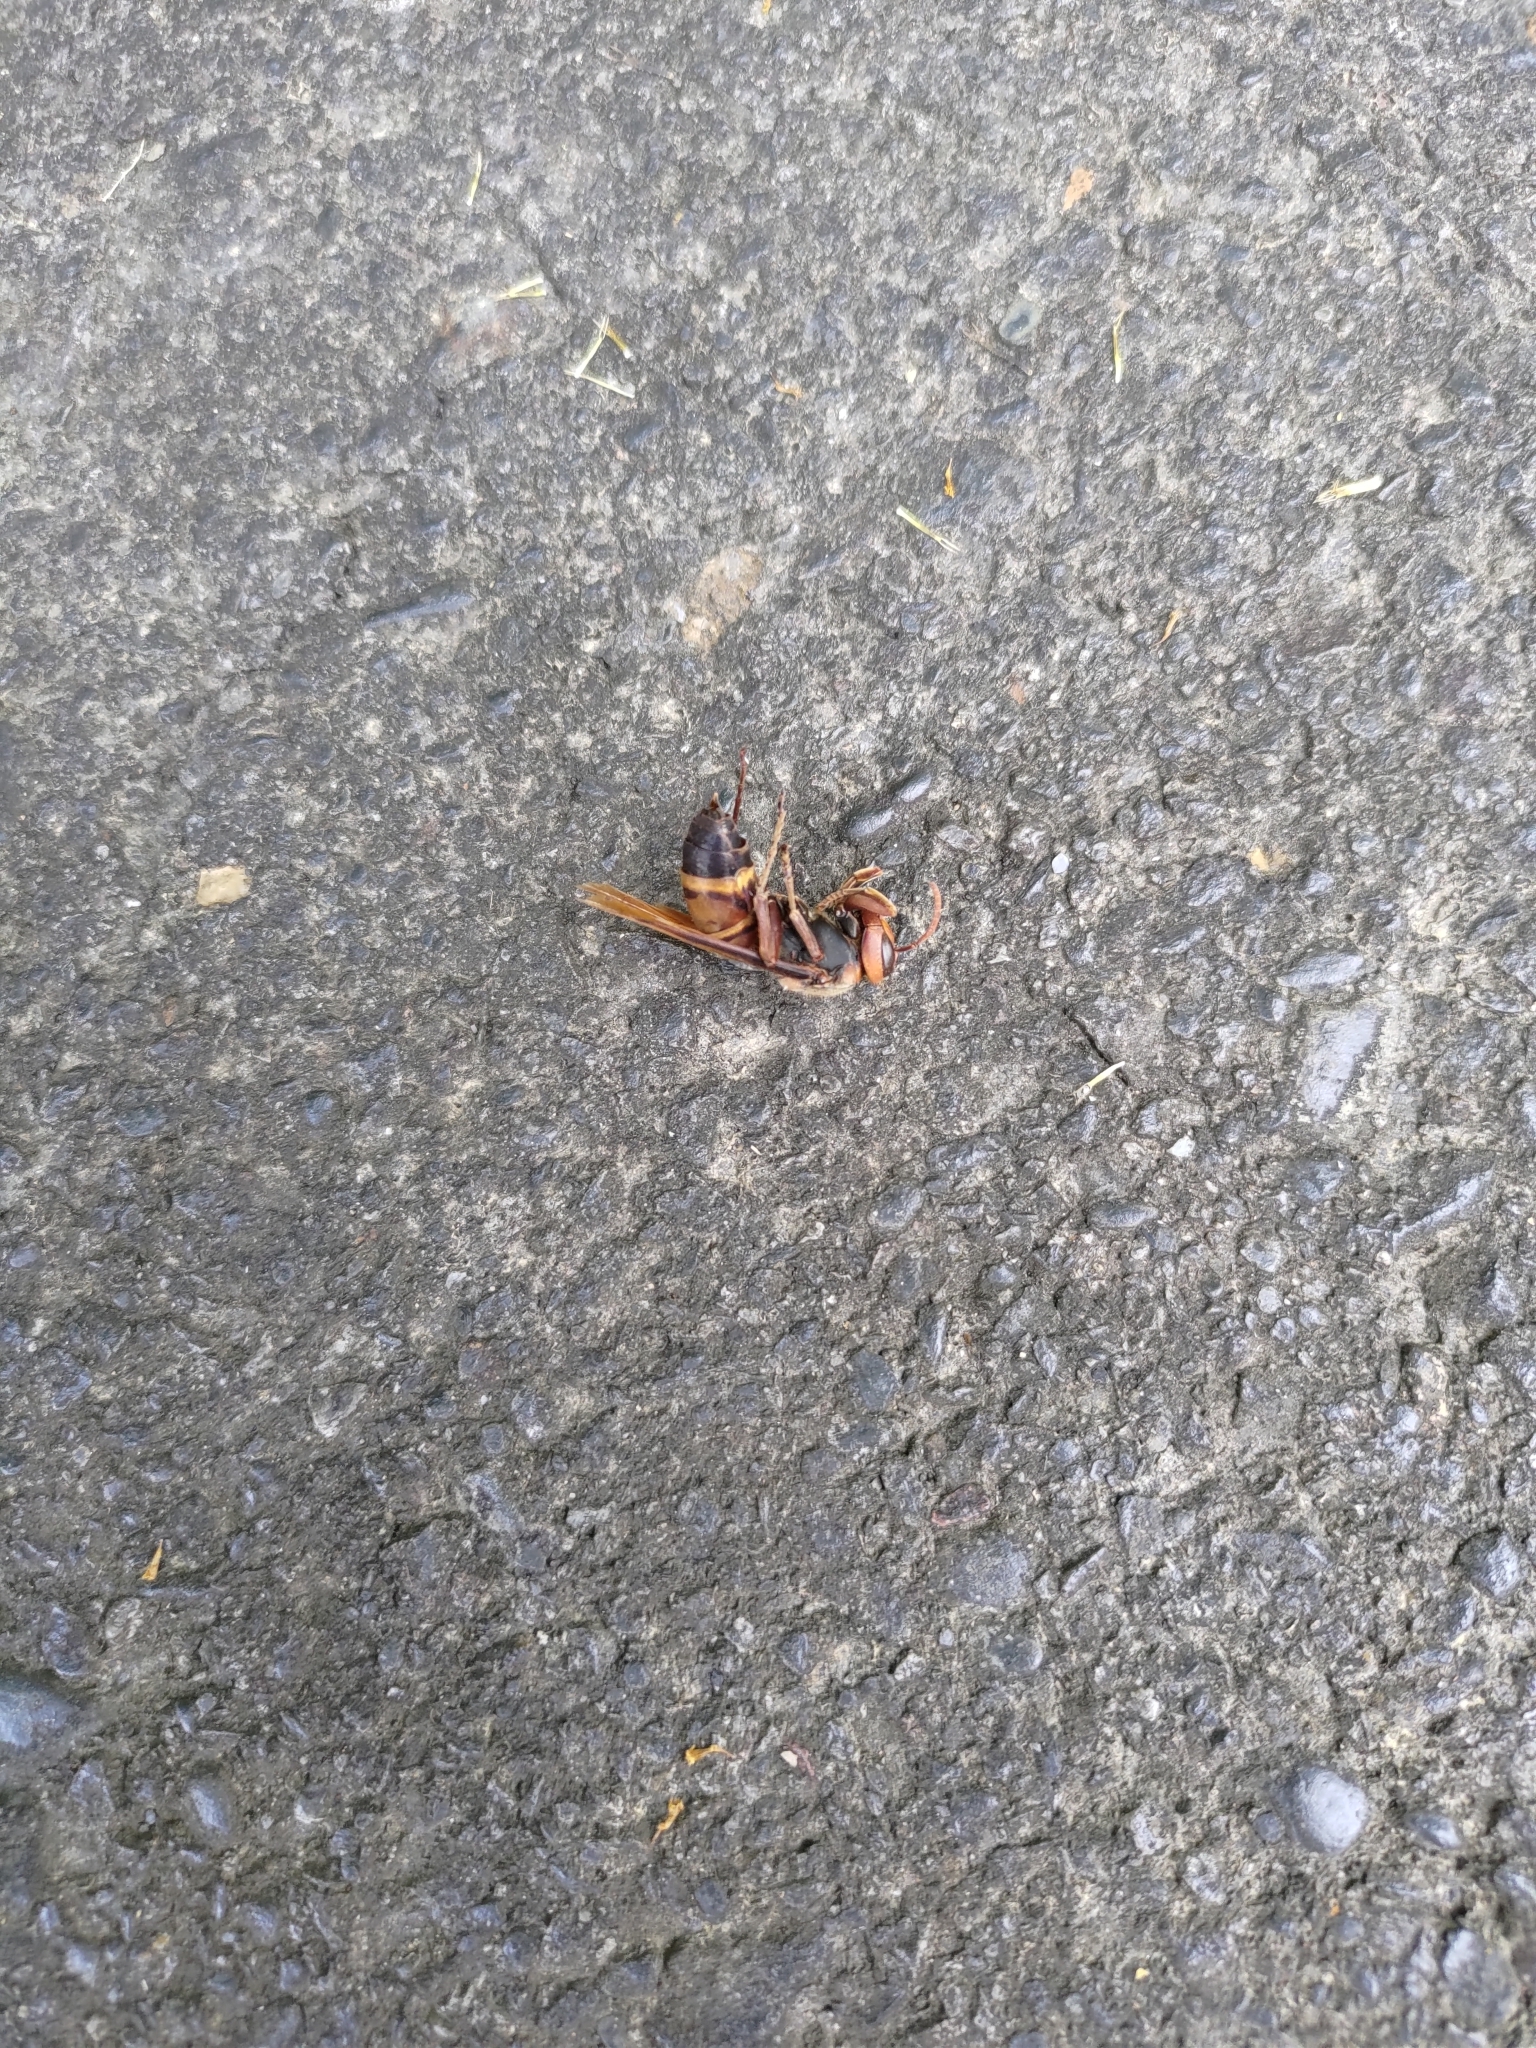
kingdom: Animalia
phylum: Arthropoda
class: Insecta
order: Hymenoptera
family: Vespidae
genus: Vespa
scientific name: Vespa ducalis
